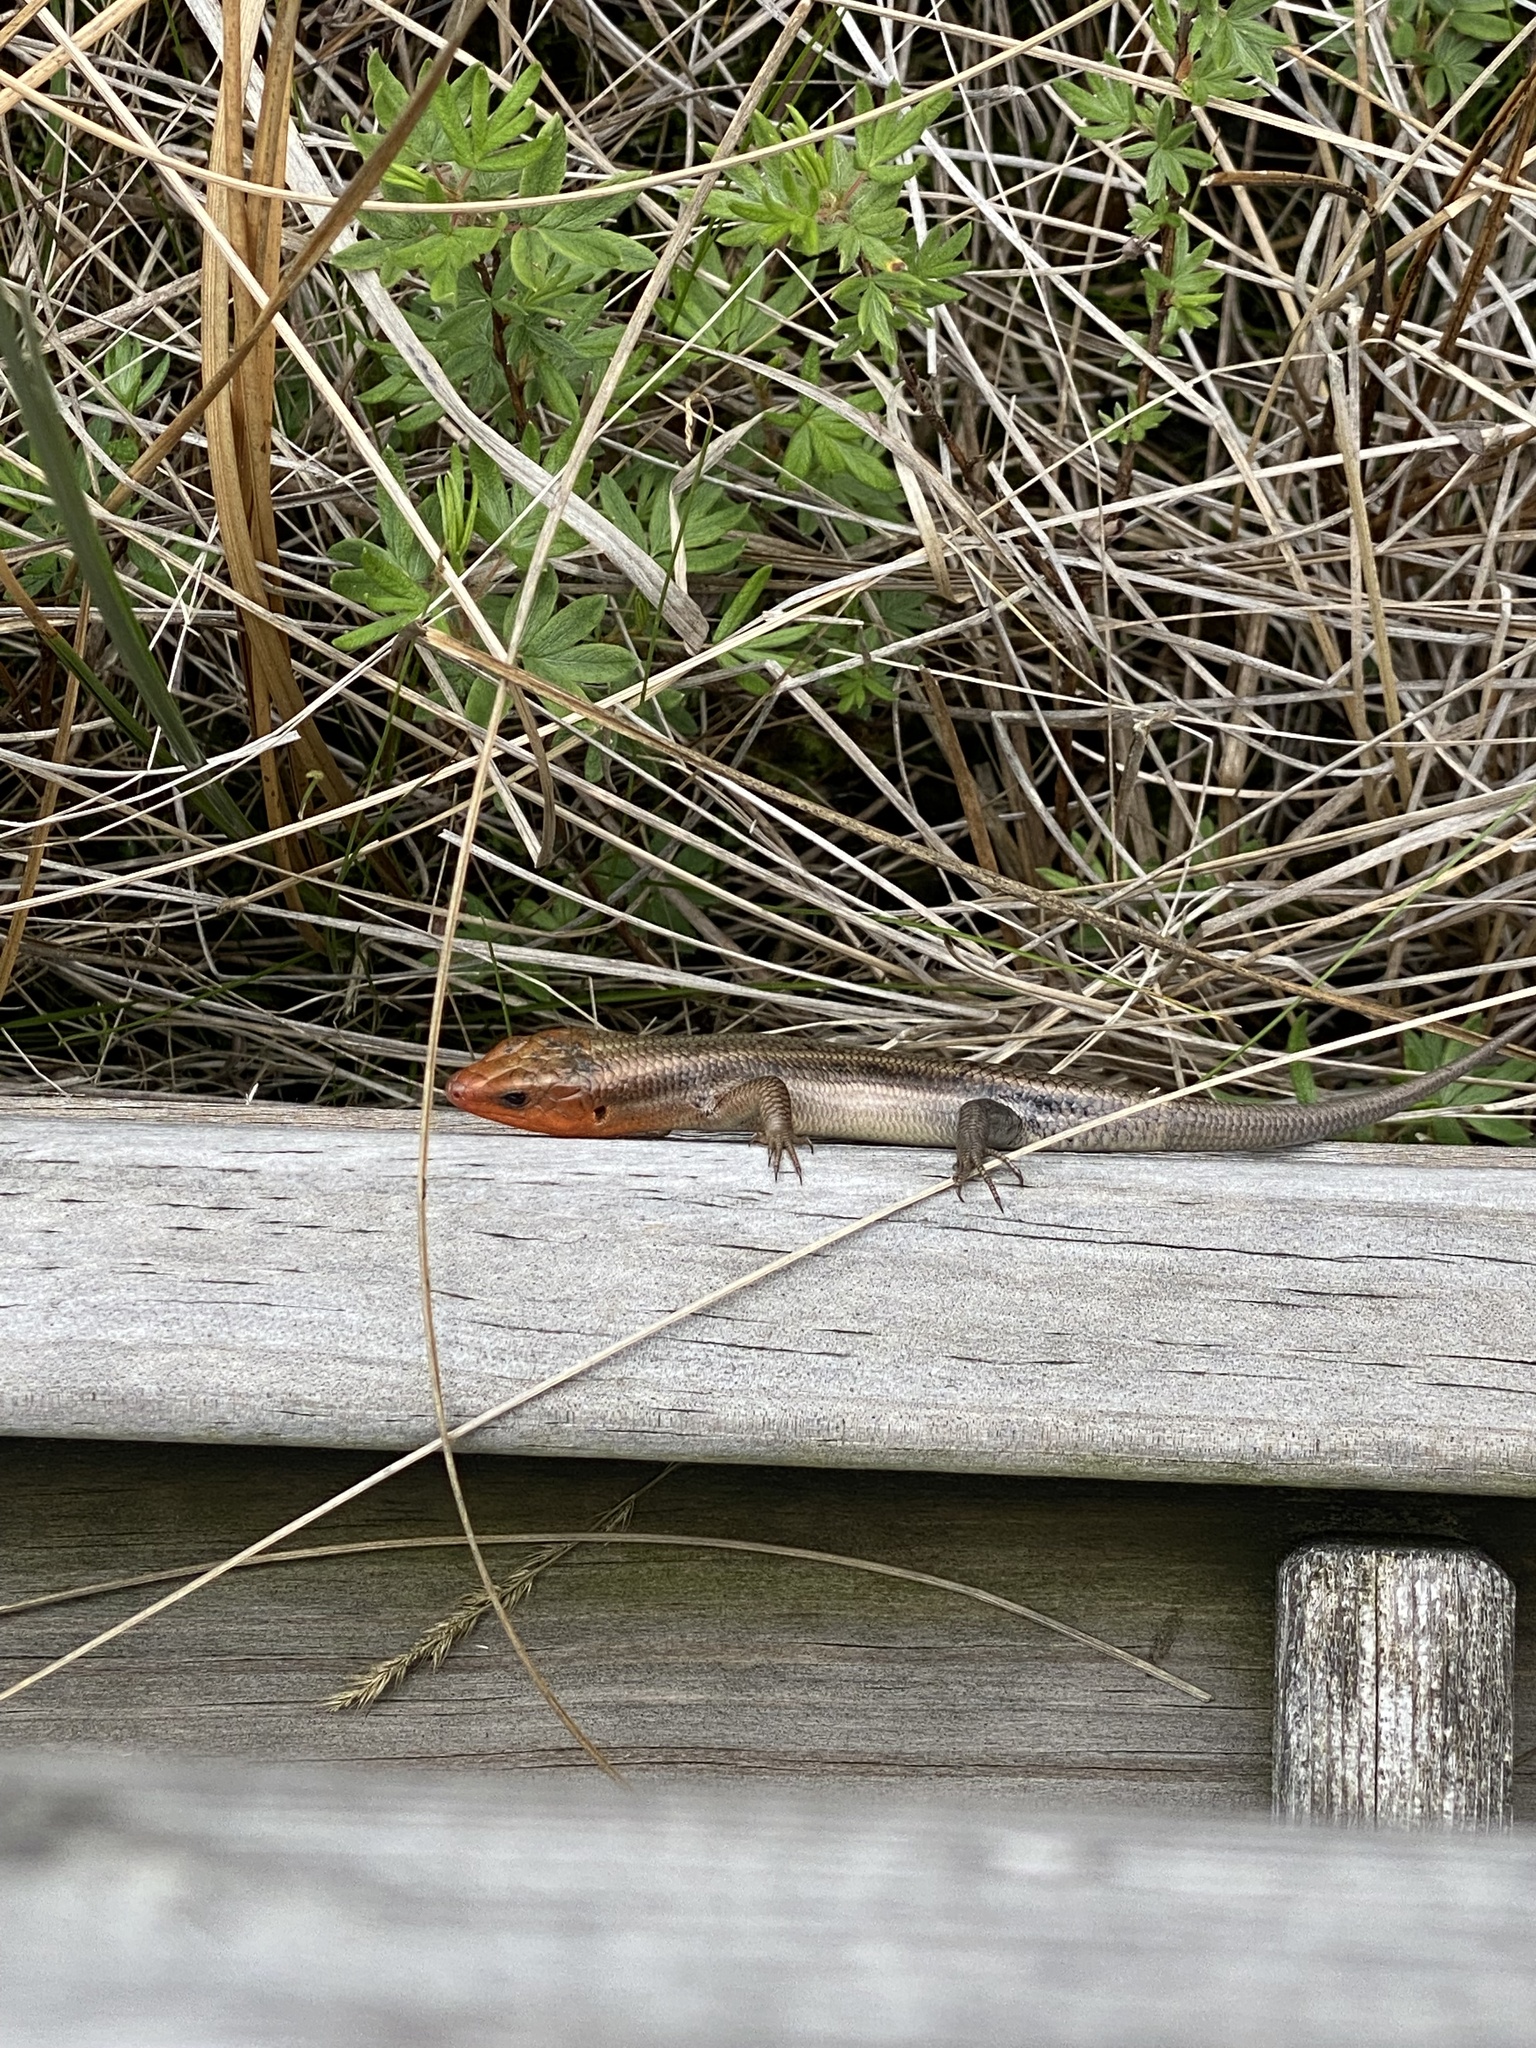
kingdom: Animalia
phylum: Chordata
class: Squamata
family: Scincidae
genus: Plestiodon
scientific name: Plestiodon fasciatus
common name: Five-lined skink
